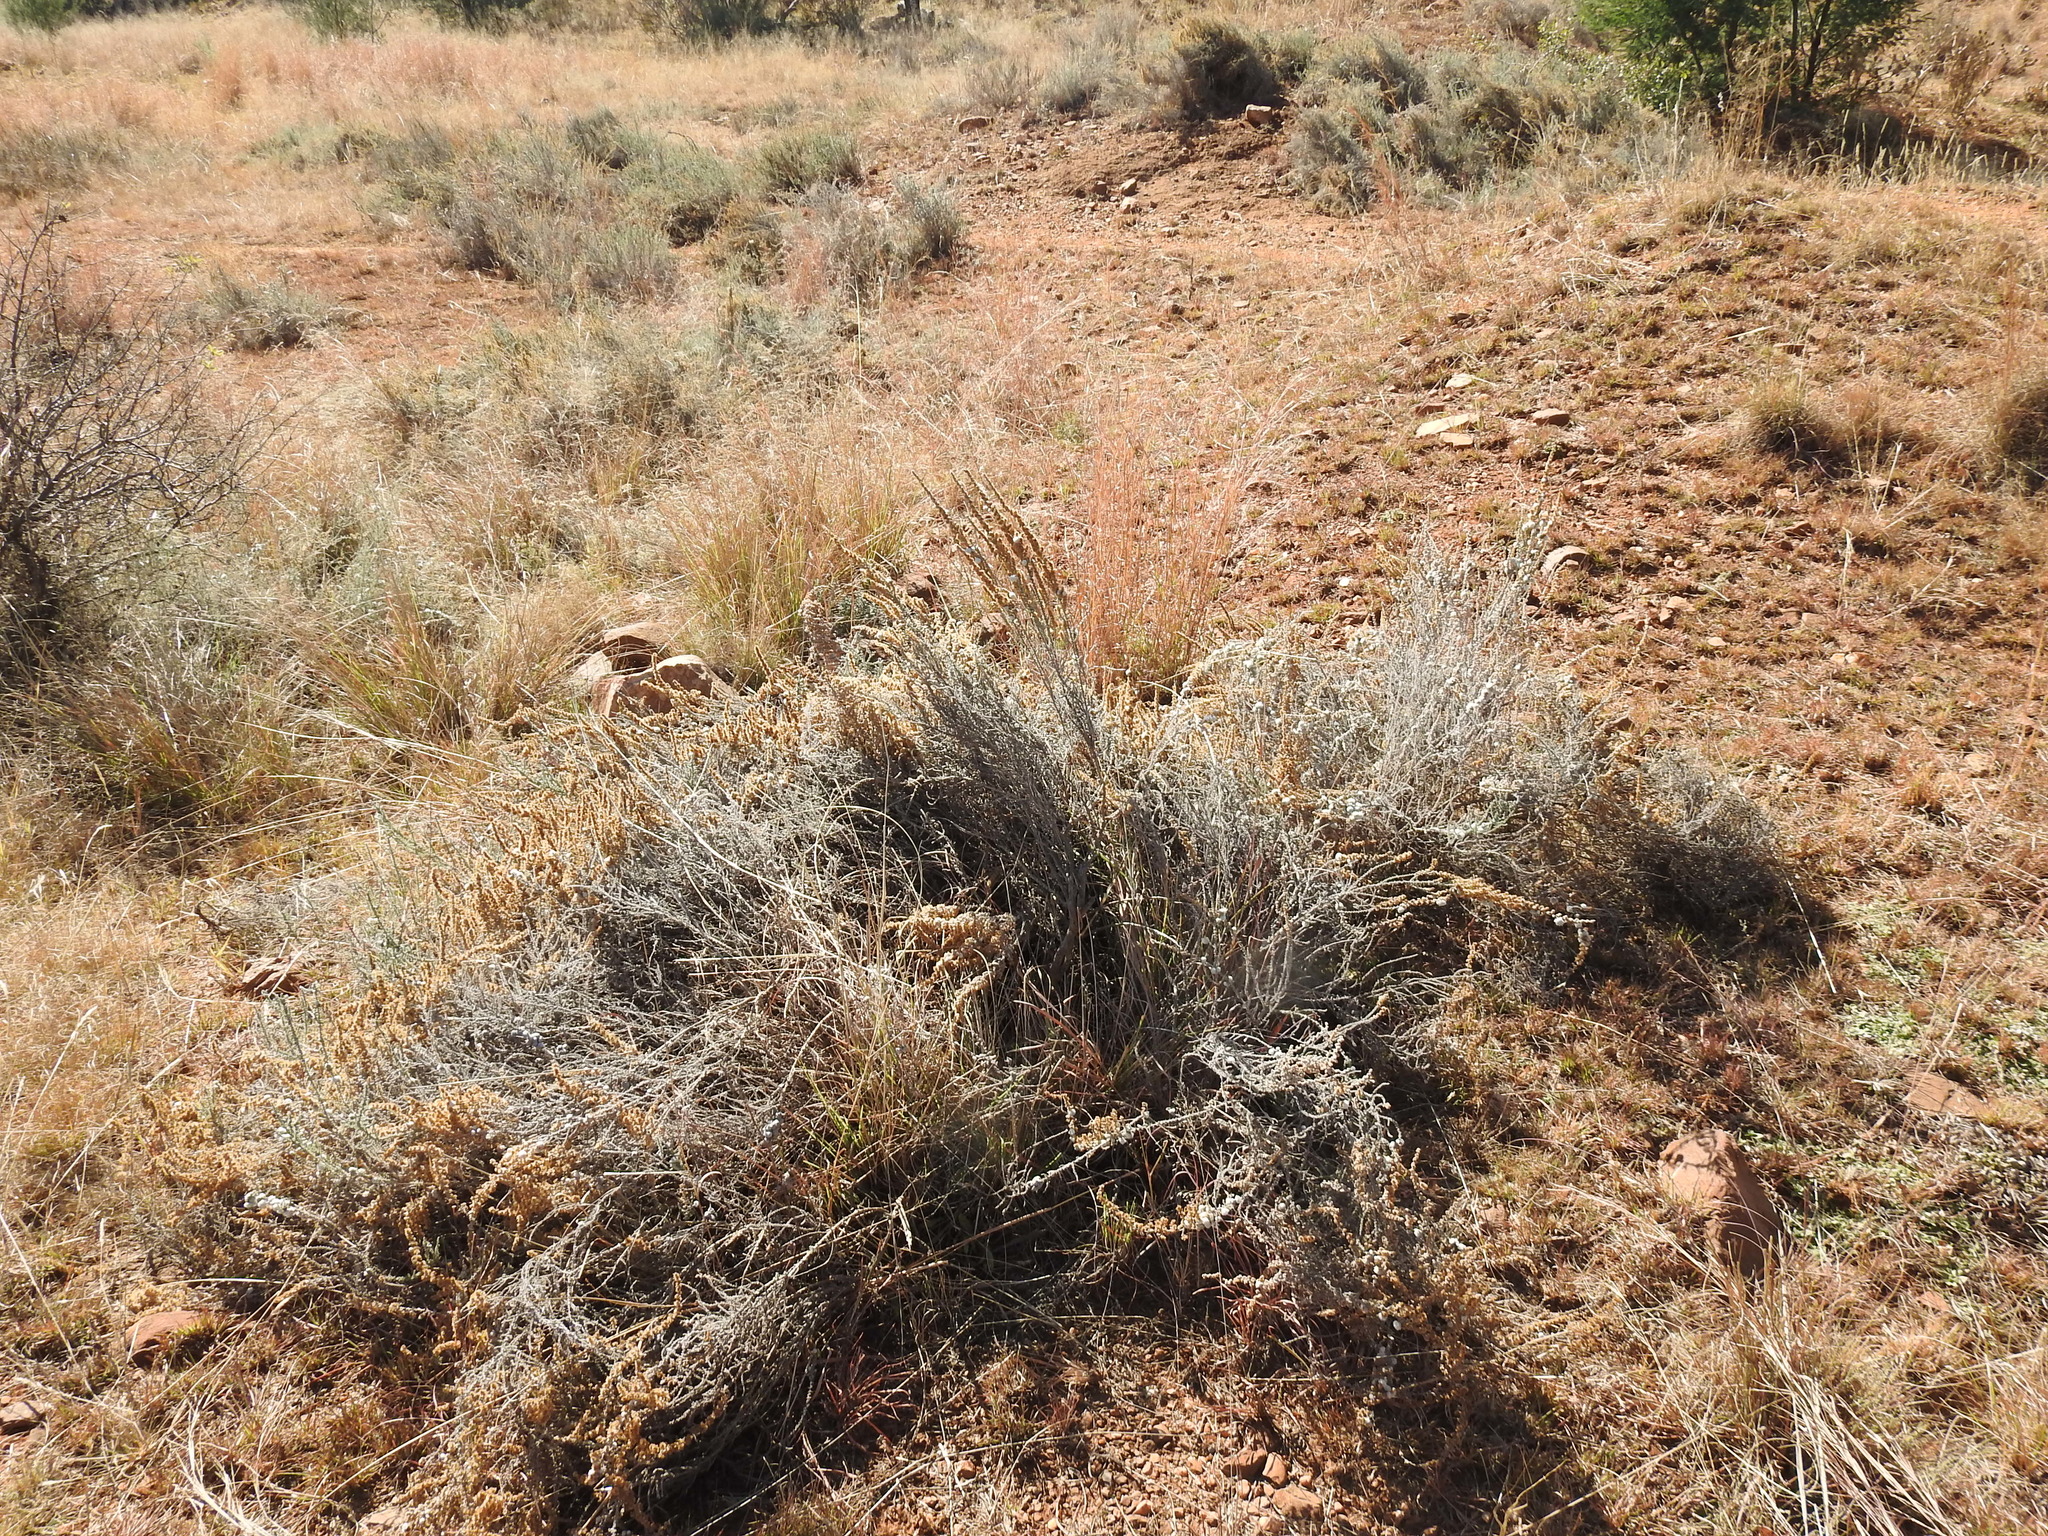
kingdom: Plantae
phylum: Tracheophyta
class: Magnoliopsida
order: Asterales
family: Asteraceae
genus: Seriphium
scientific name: Seriphium plumosum
